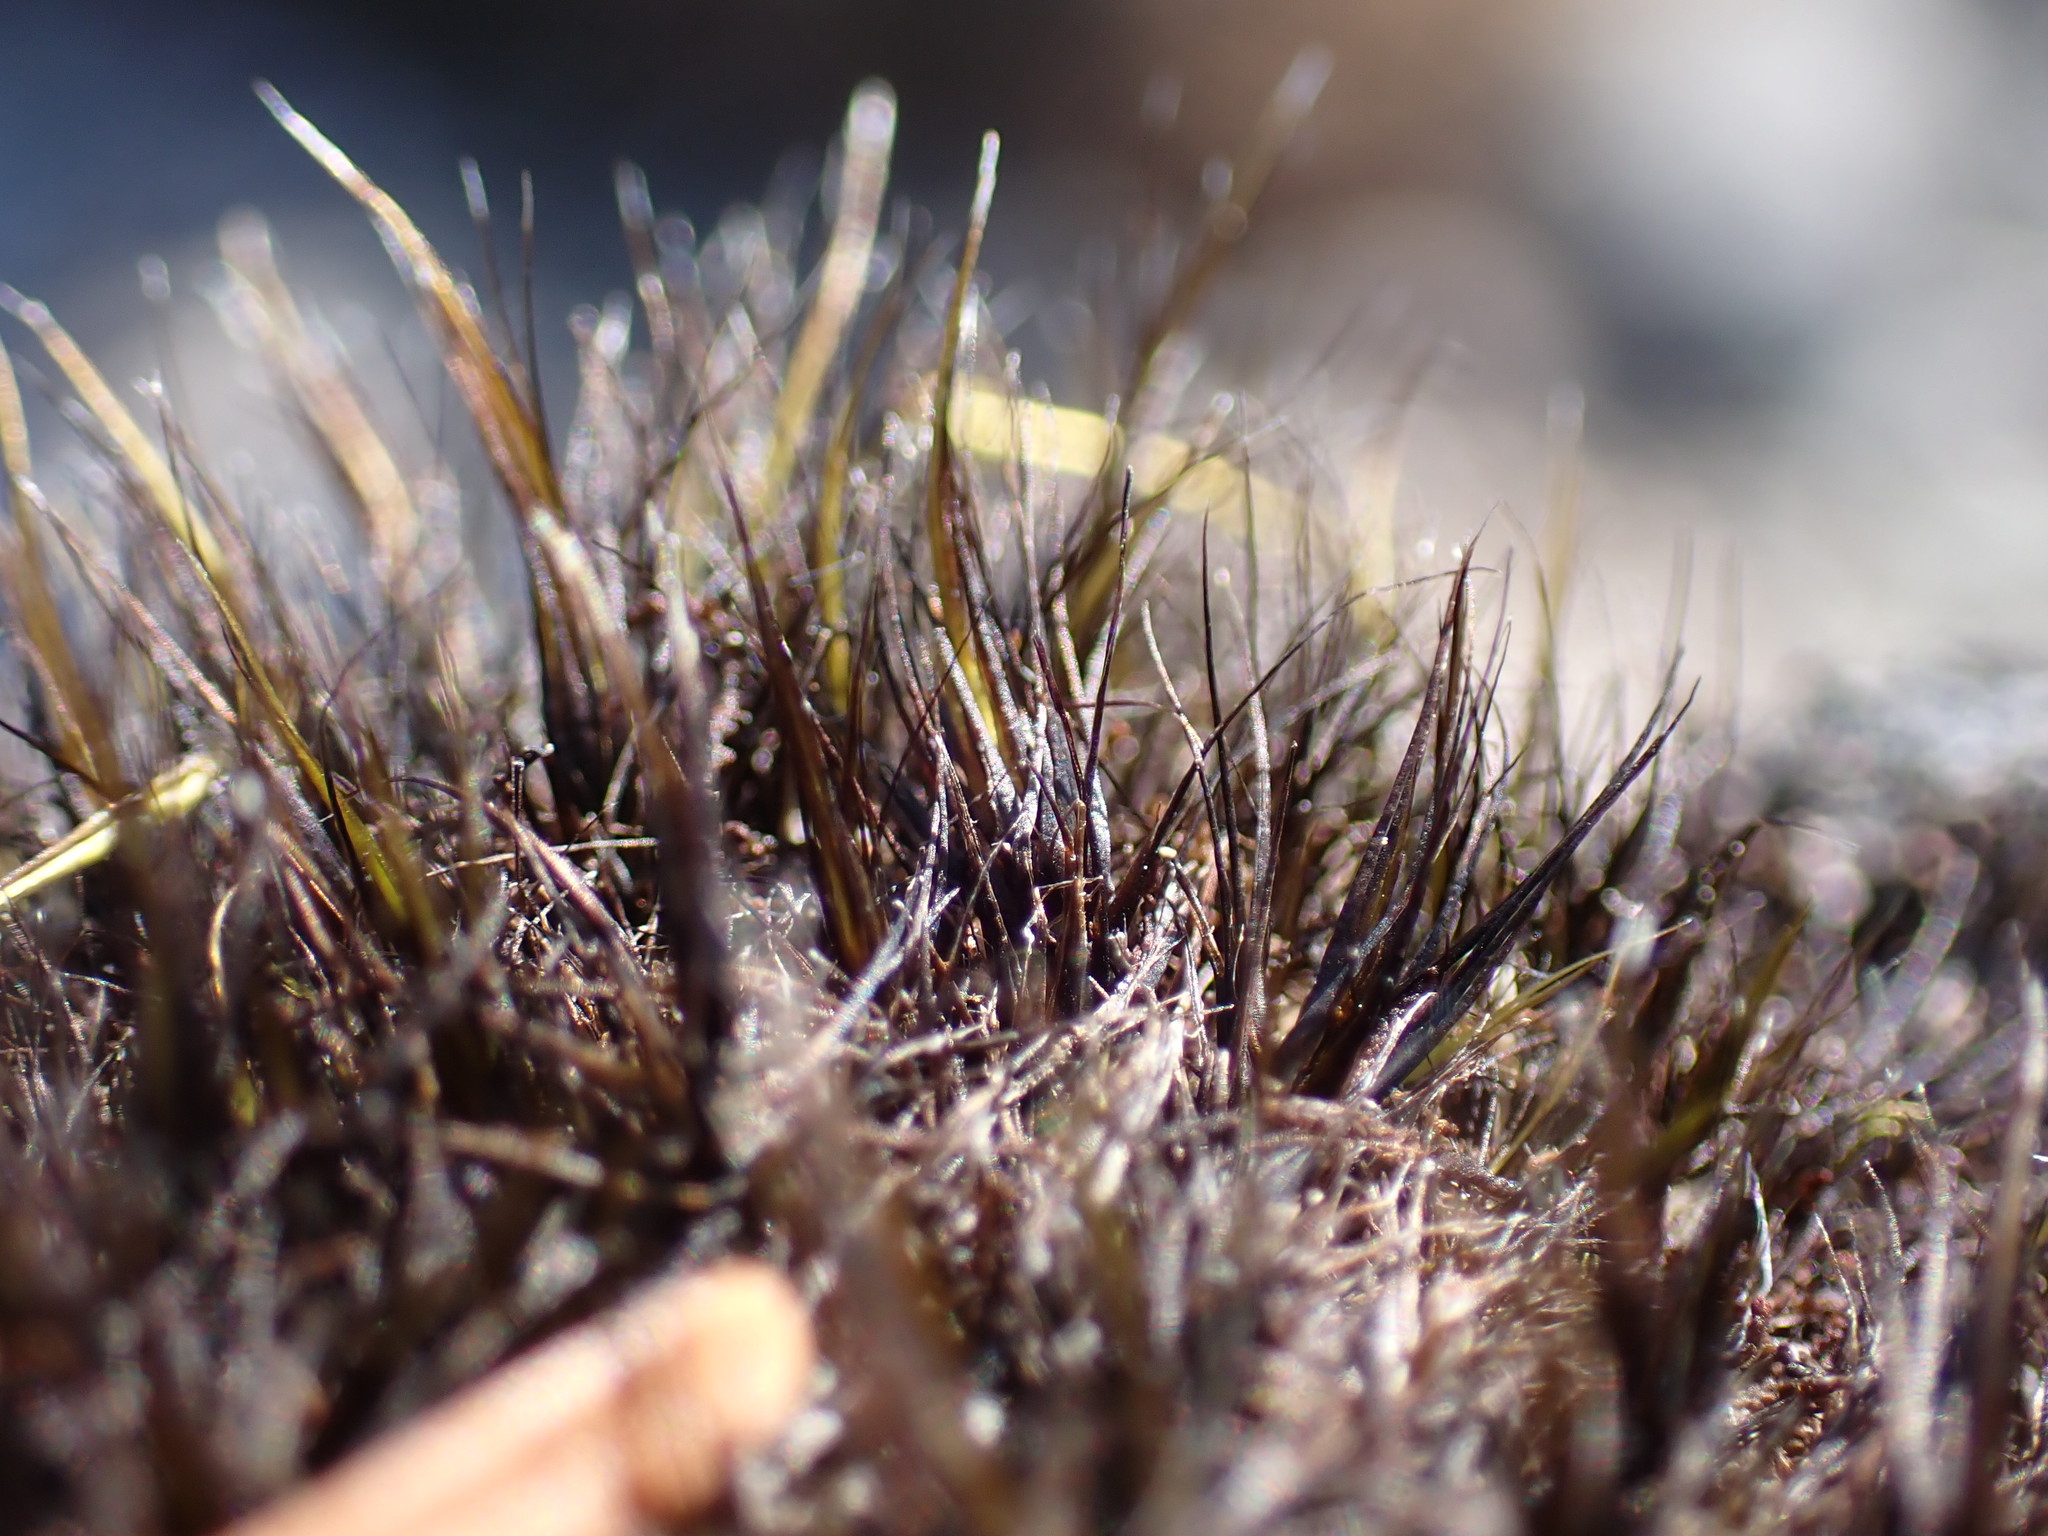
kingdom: Plantae
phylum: Bryophyta
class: Bryopsida
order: Dicranales
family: Leucobryaceae
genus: Campylopus
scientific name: Campylopus atrovirens
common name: Bristly swan-neck moss
